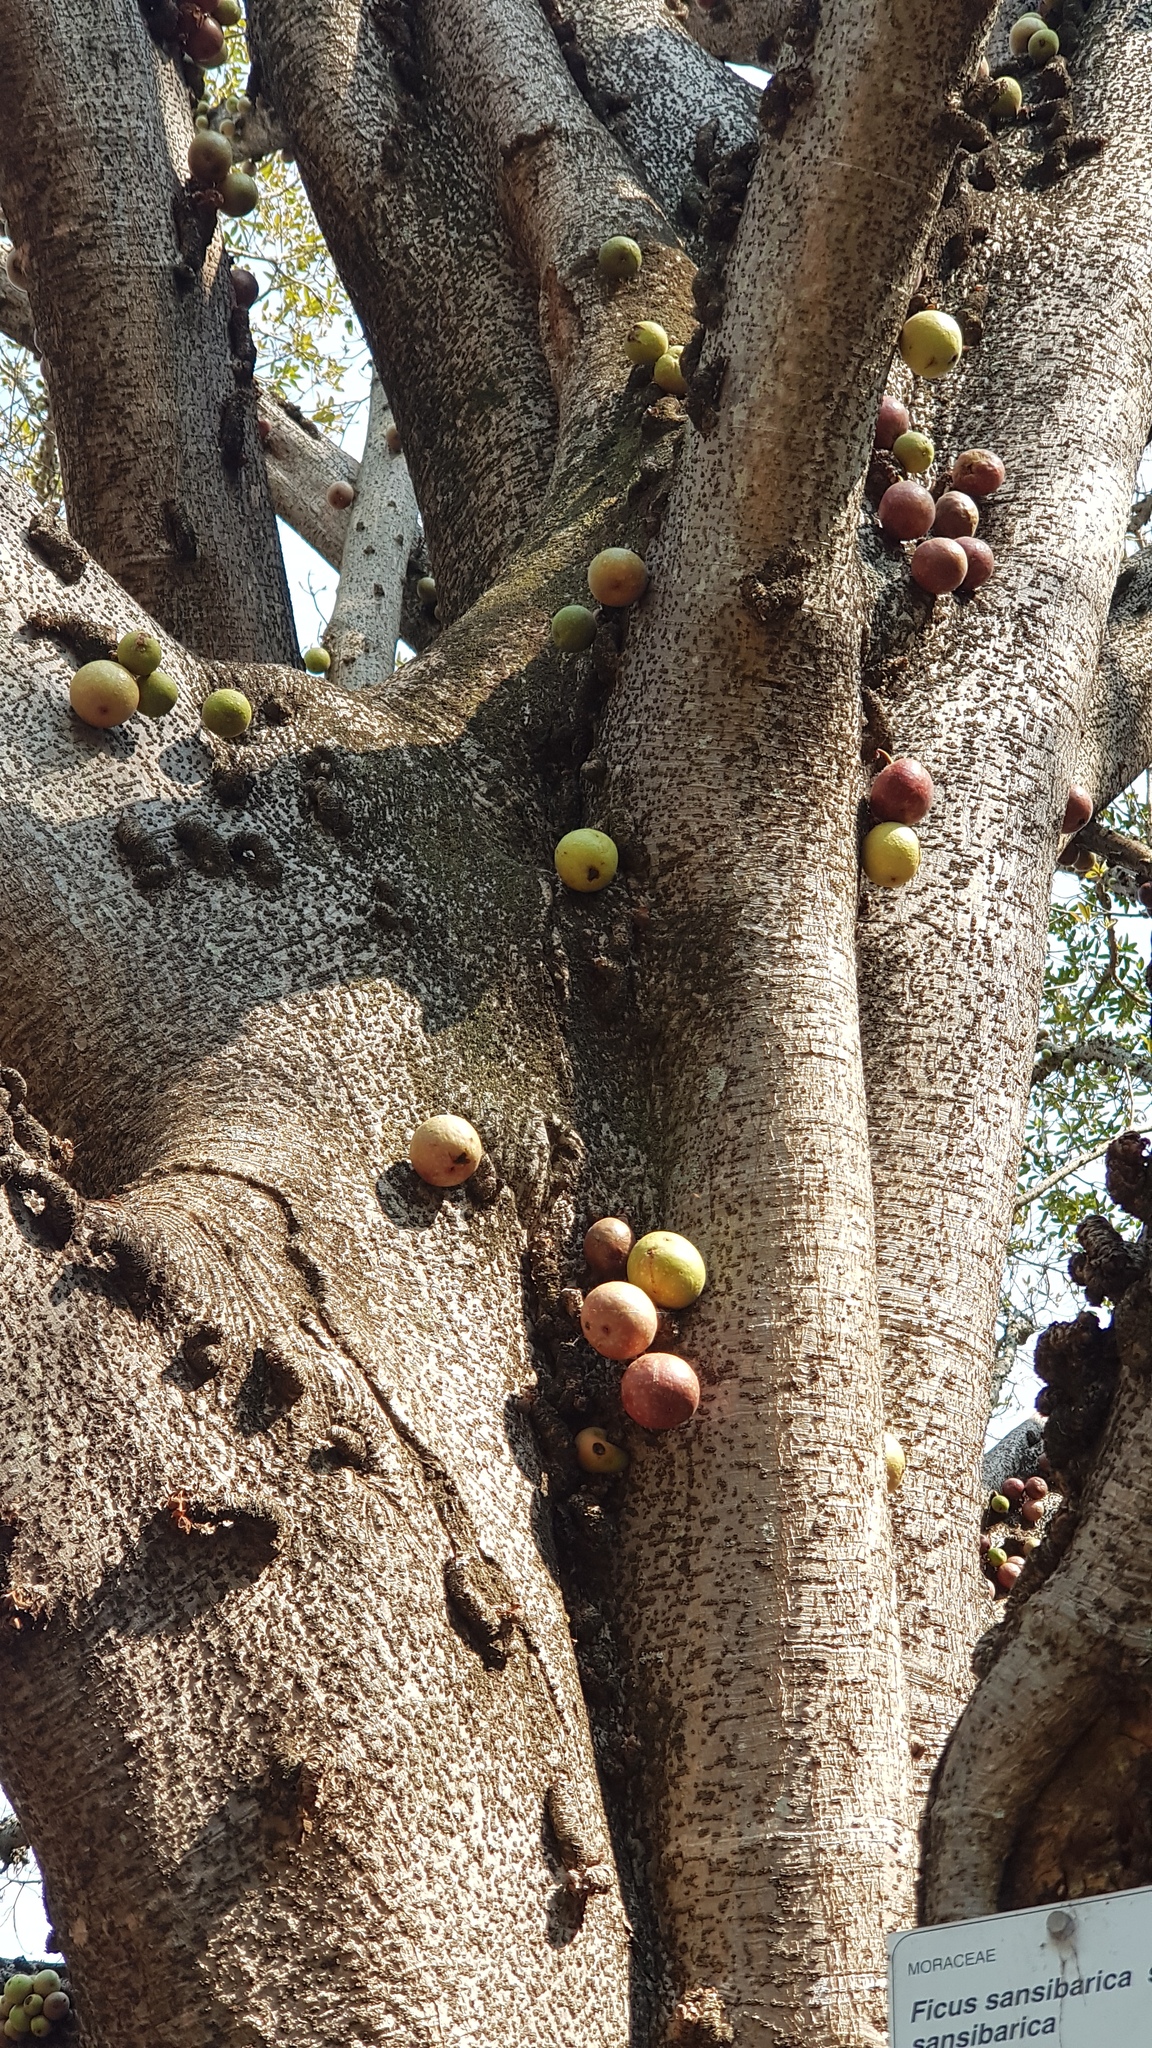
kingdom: Plantae
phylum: Tracheophyta
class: Magnoliopsida
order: Rosales
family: Moraceae
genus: Ficus
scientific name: Ficus sansibarica
